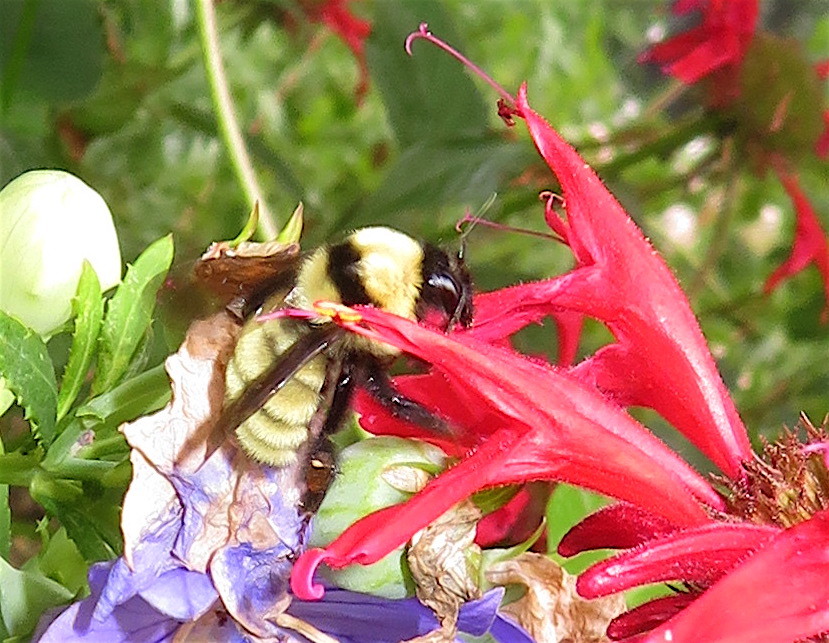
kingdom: Animalia
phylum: Arthropoda
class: Insecta
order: Hymenoptera
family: Apidae
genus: Bombus
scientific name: Bombus fervidus
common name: Yellow bumble bee
